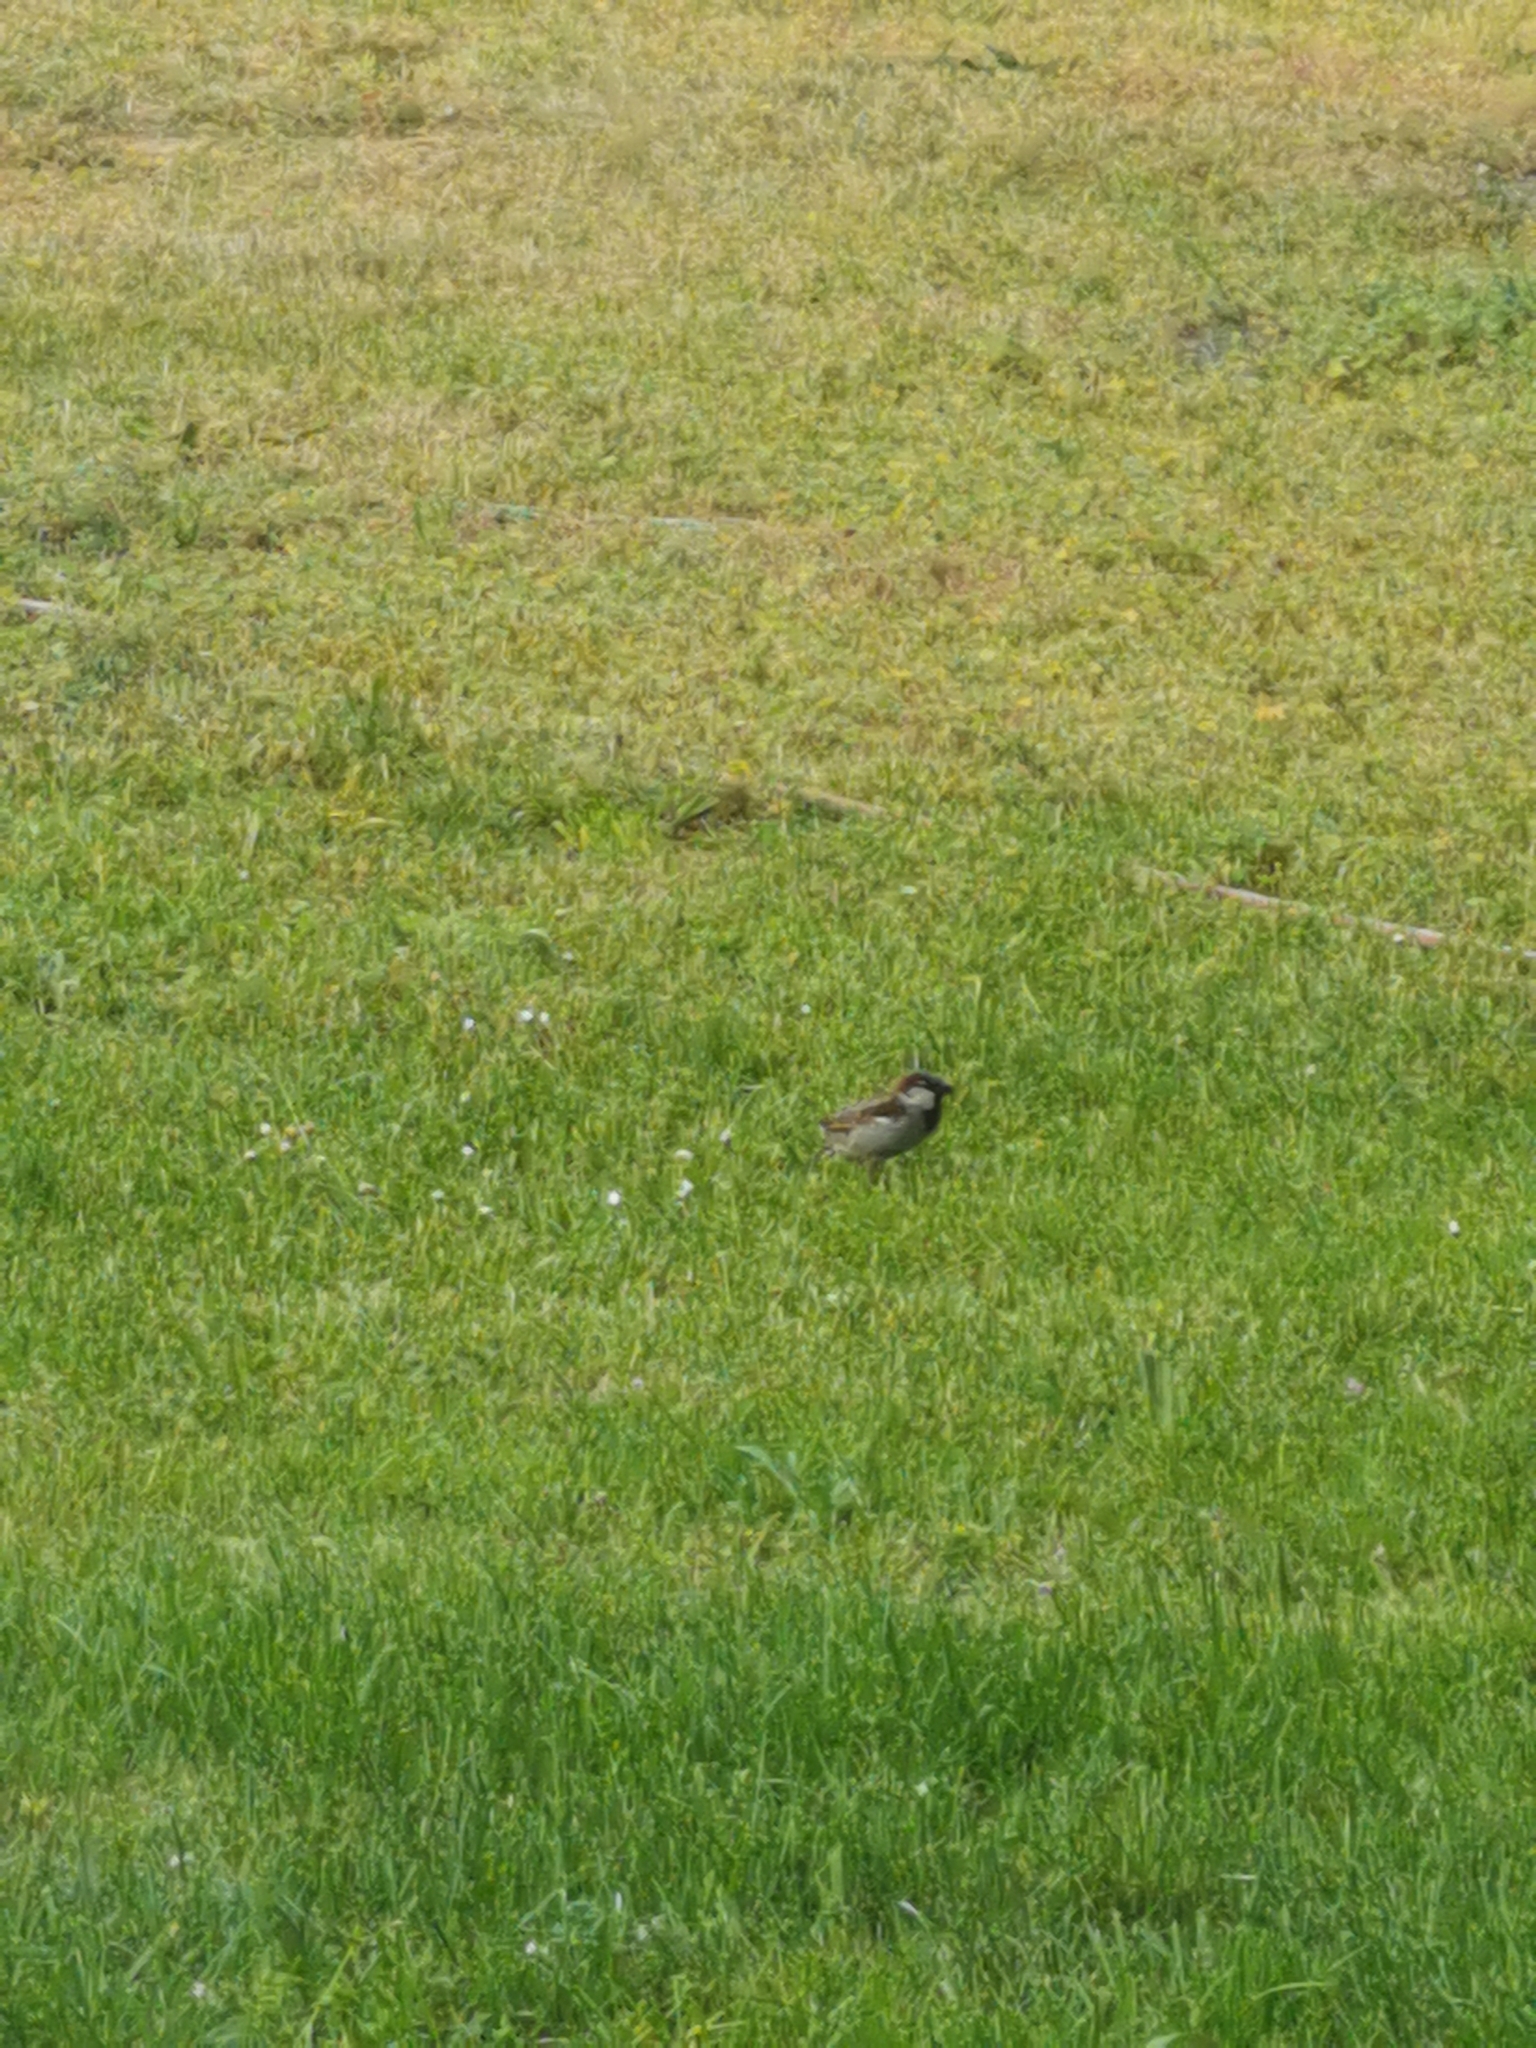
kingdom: Animalia
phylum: Chordata
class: Aves
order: Passeriformes
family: Passeridae
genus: Passer
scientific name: Passer domesticus
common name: House sparrow
